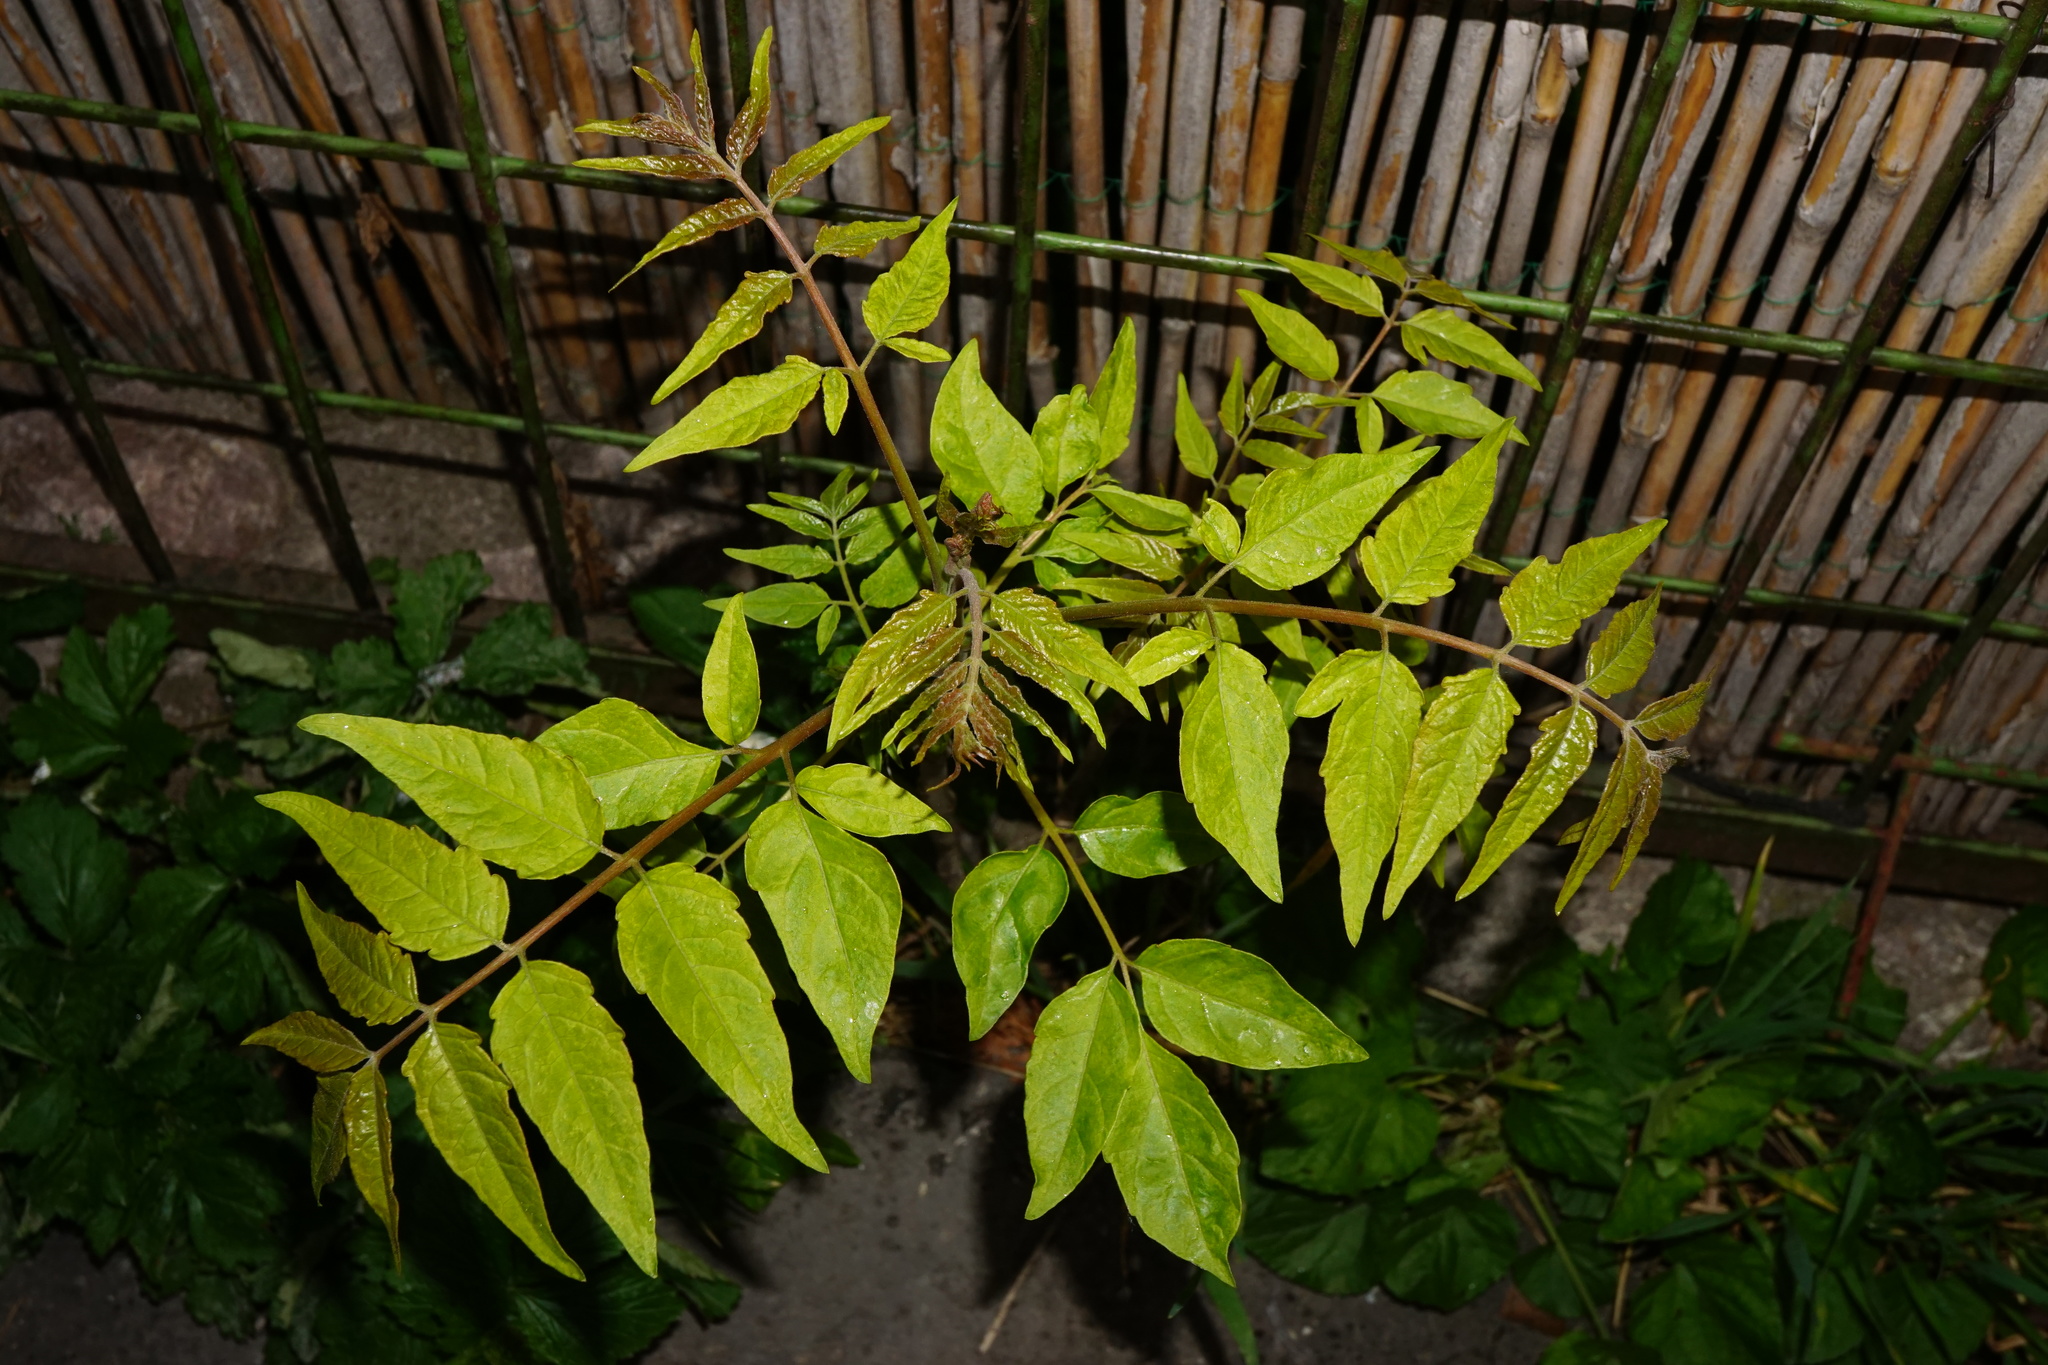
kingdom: Plantae
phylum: Tracheophyta
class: Magnoliopsida
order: Sapindales
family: Simaroubaceae
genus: Ailanthus
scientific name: Ailanthus altissima
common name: Tree-of-heaven
